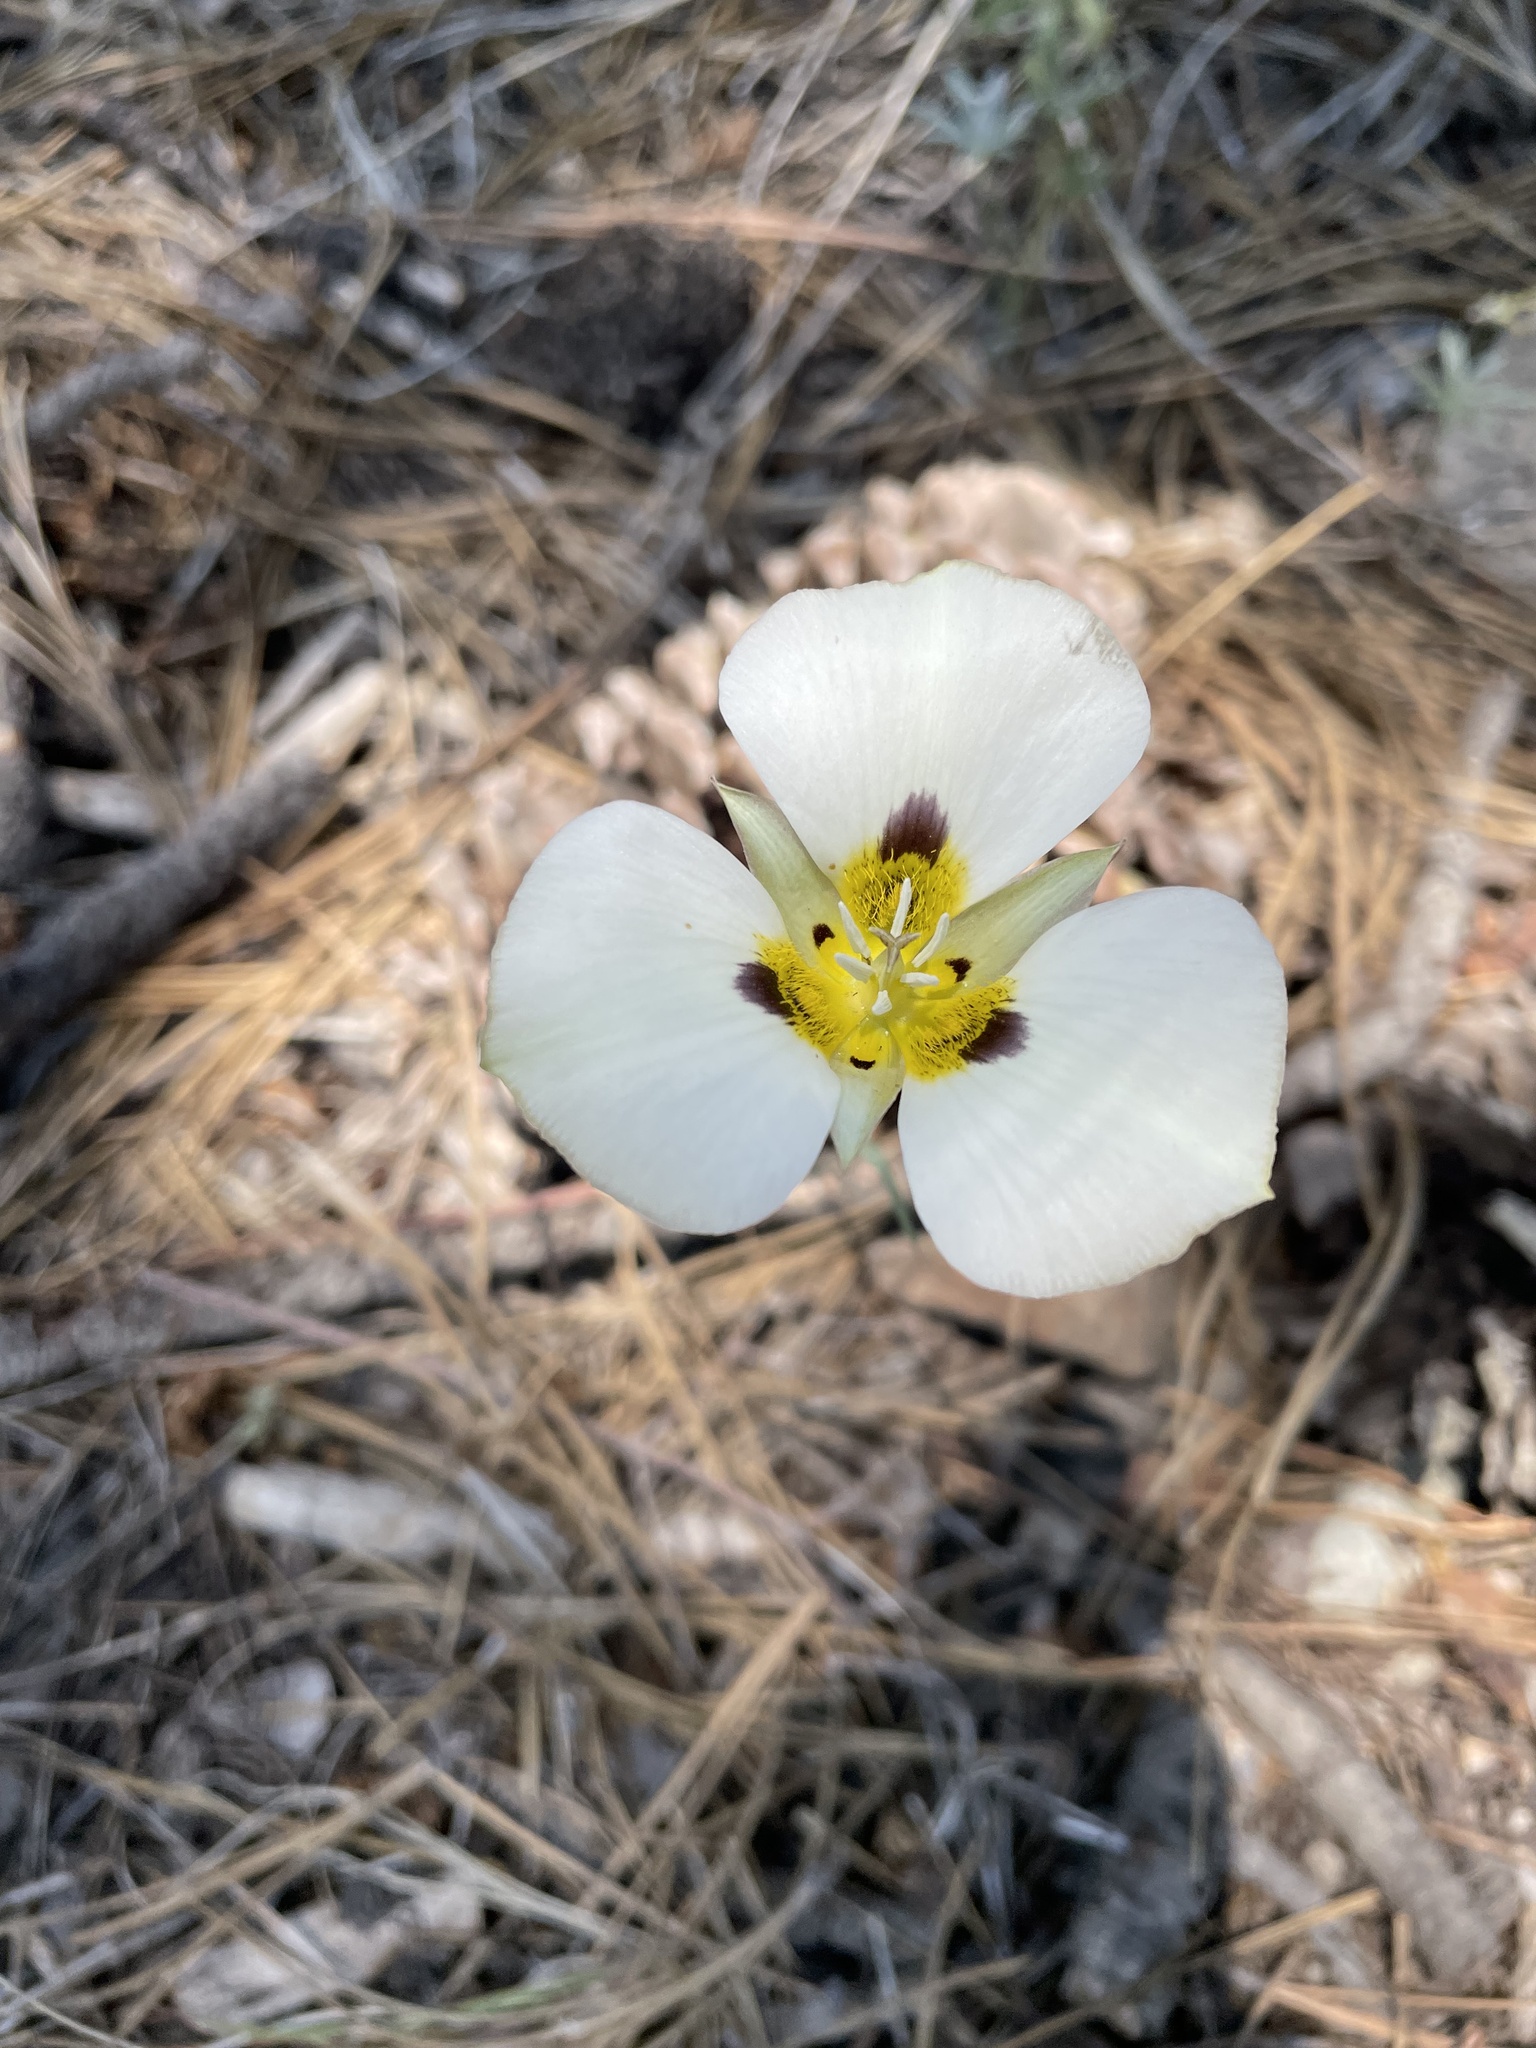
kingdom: Plantae
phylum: Tracheophyta
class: Liliopsida
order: Liliales
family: Liliaceae
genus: Calochortus
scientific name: Calochortus leichtlinii
